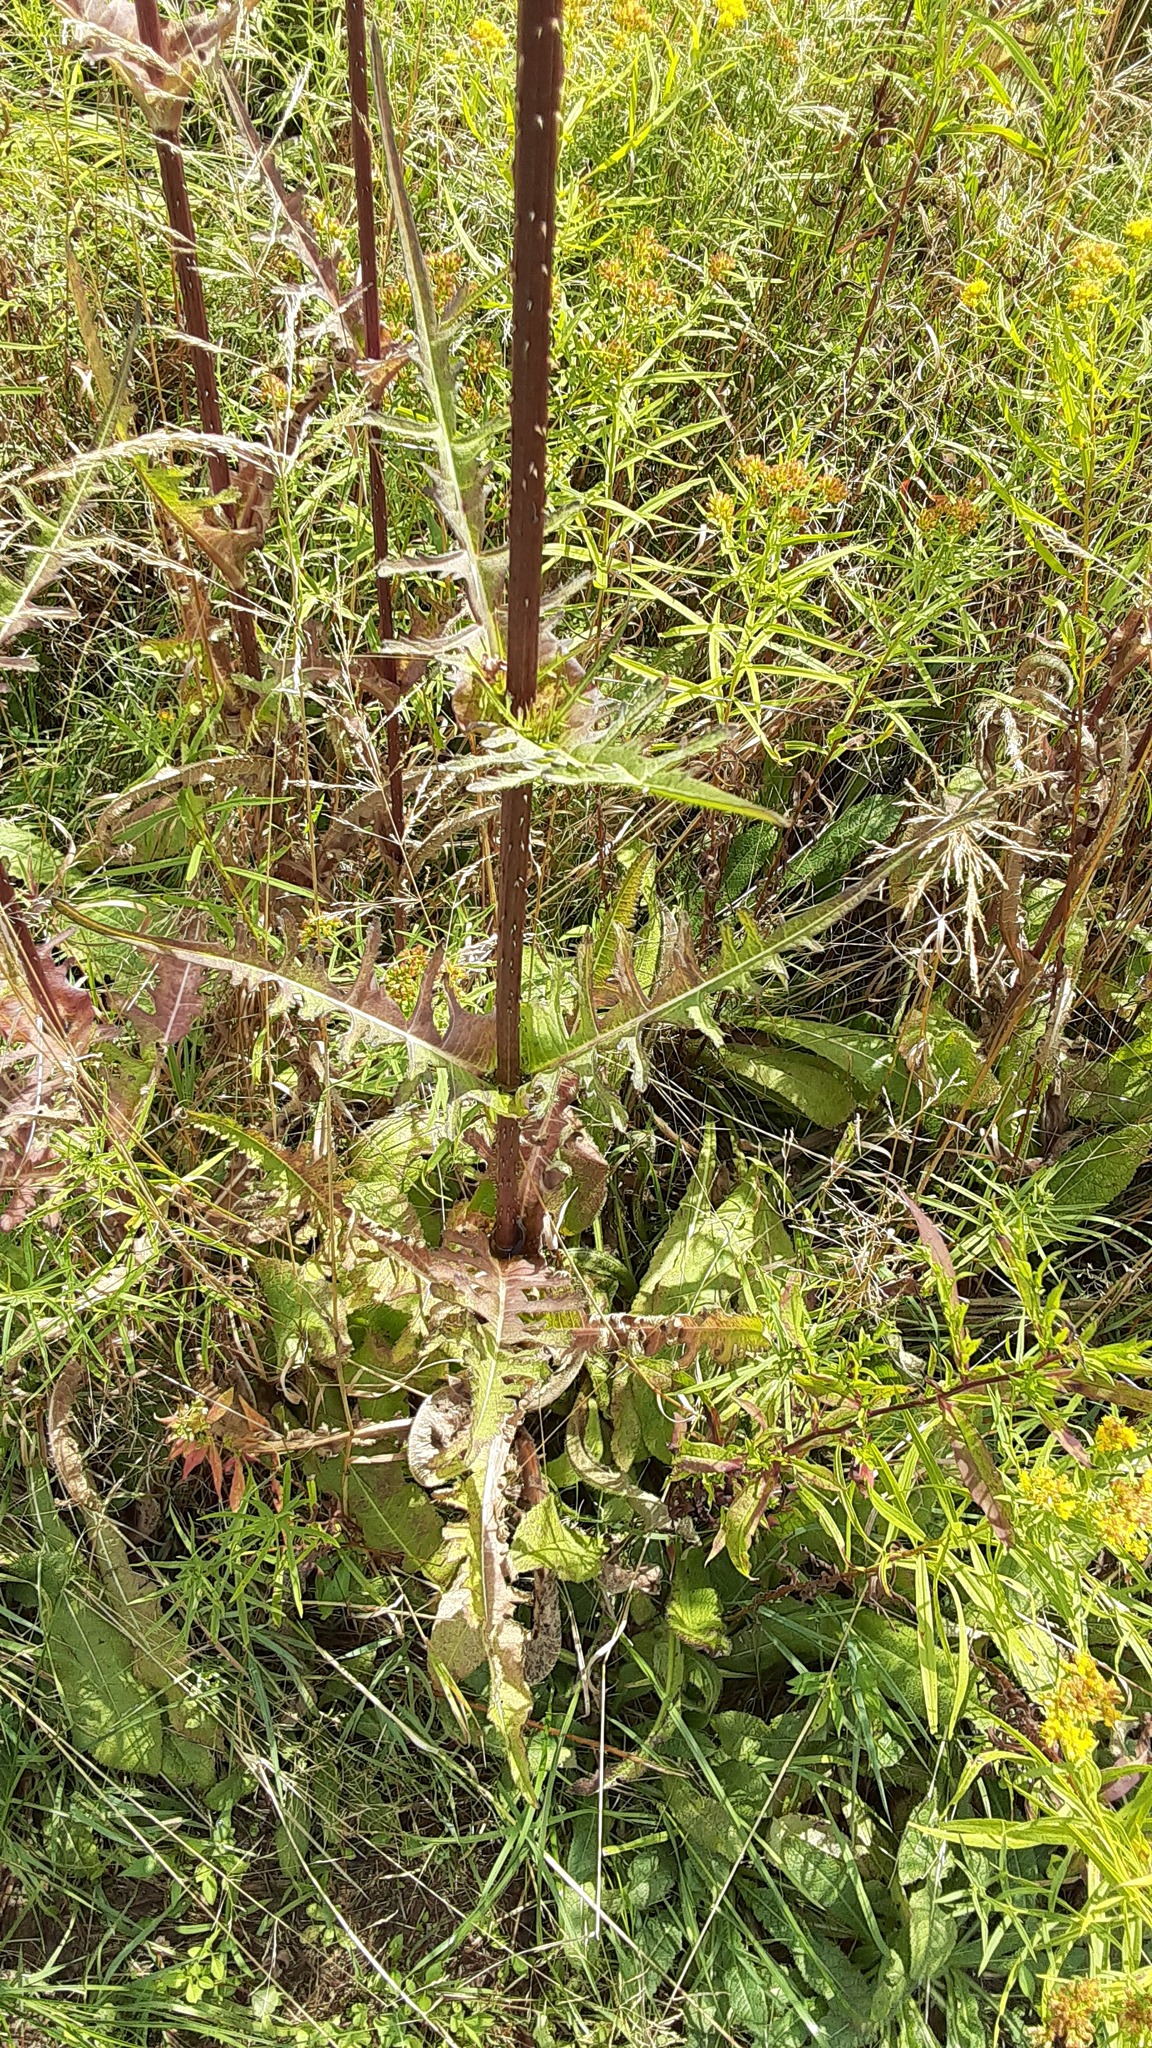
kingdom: Plantae
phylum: Tracheophyta
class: Magnoliopsida
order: Dipsacales
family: Caprifoliaceae
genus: Dipsacus
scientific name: Dipsacus laciniatus
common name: Cut-leaved teasel
